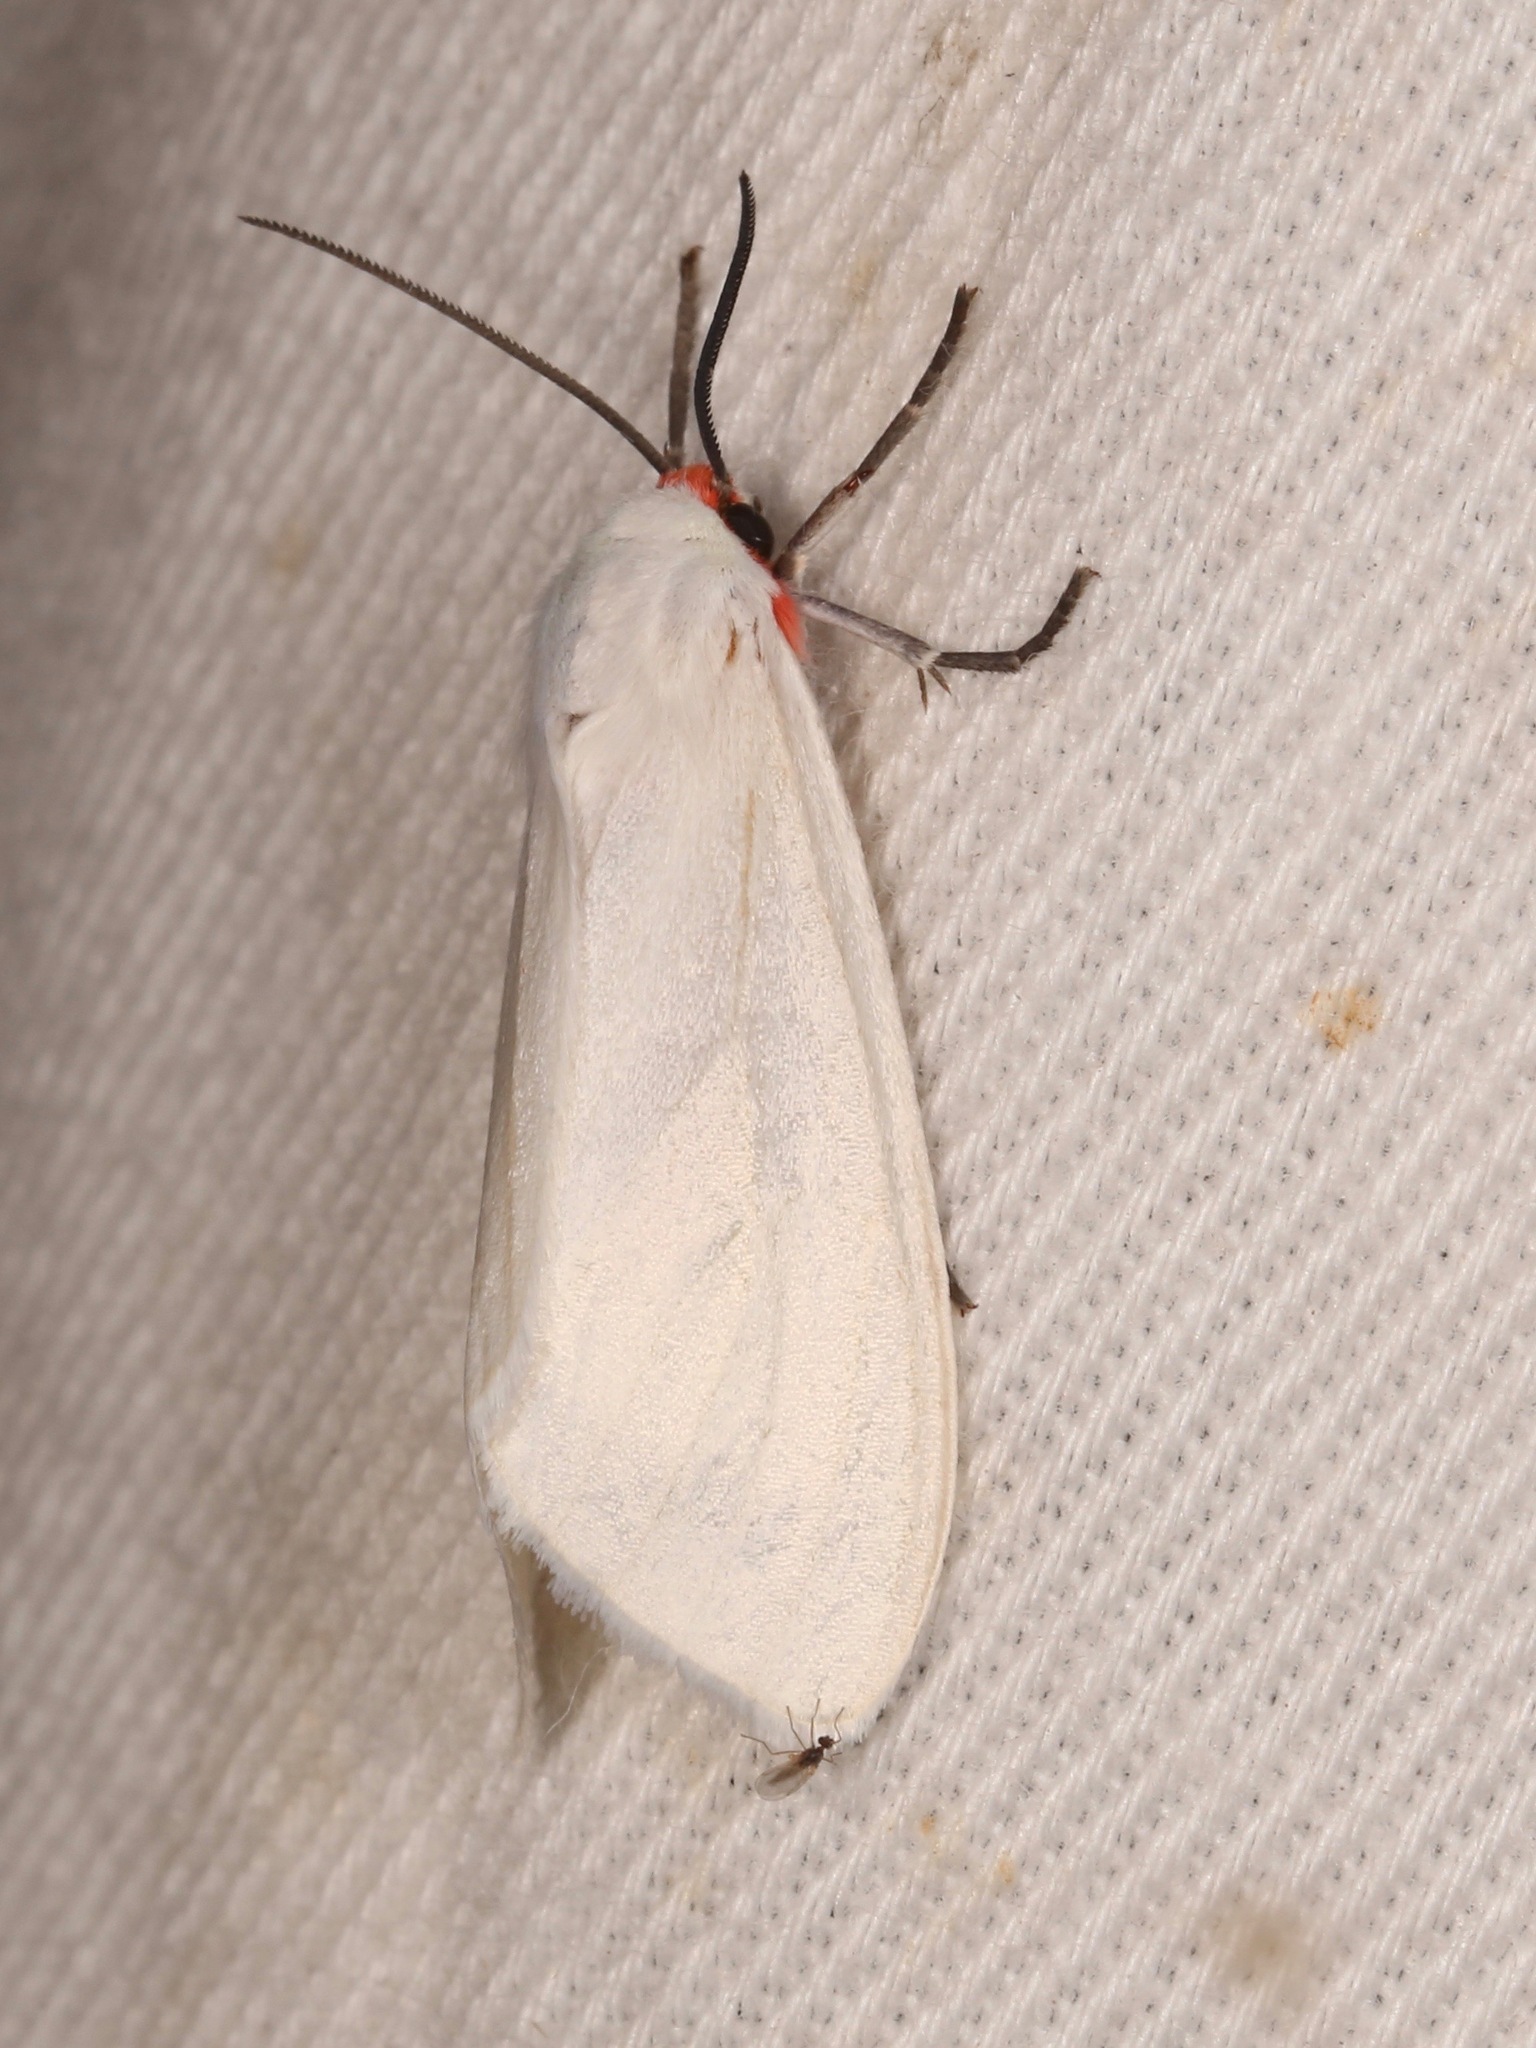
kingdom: Animalia
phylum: Arthropoda
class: Insecta
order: Lepidoptera
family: Erebidae
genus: Pygarctia
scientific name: Pygarctia roseicapitis
